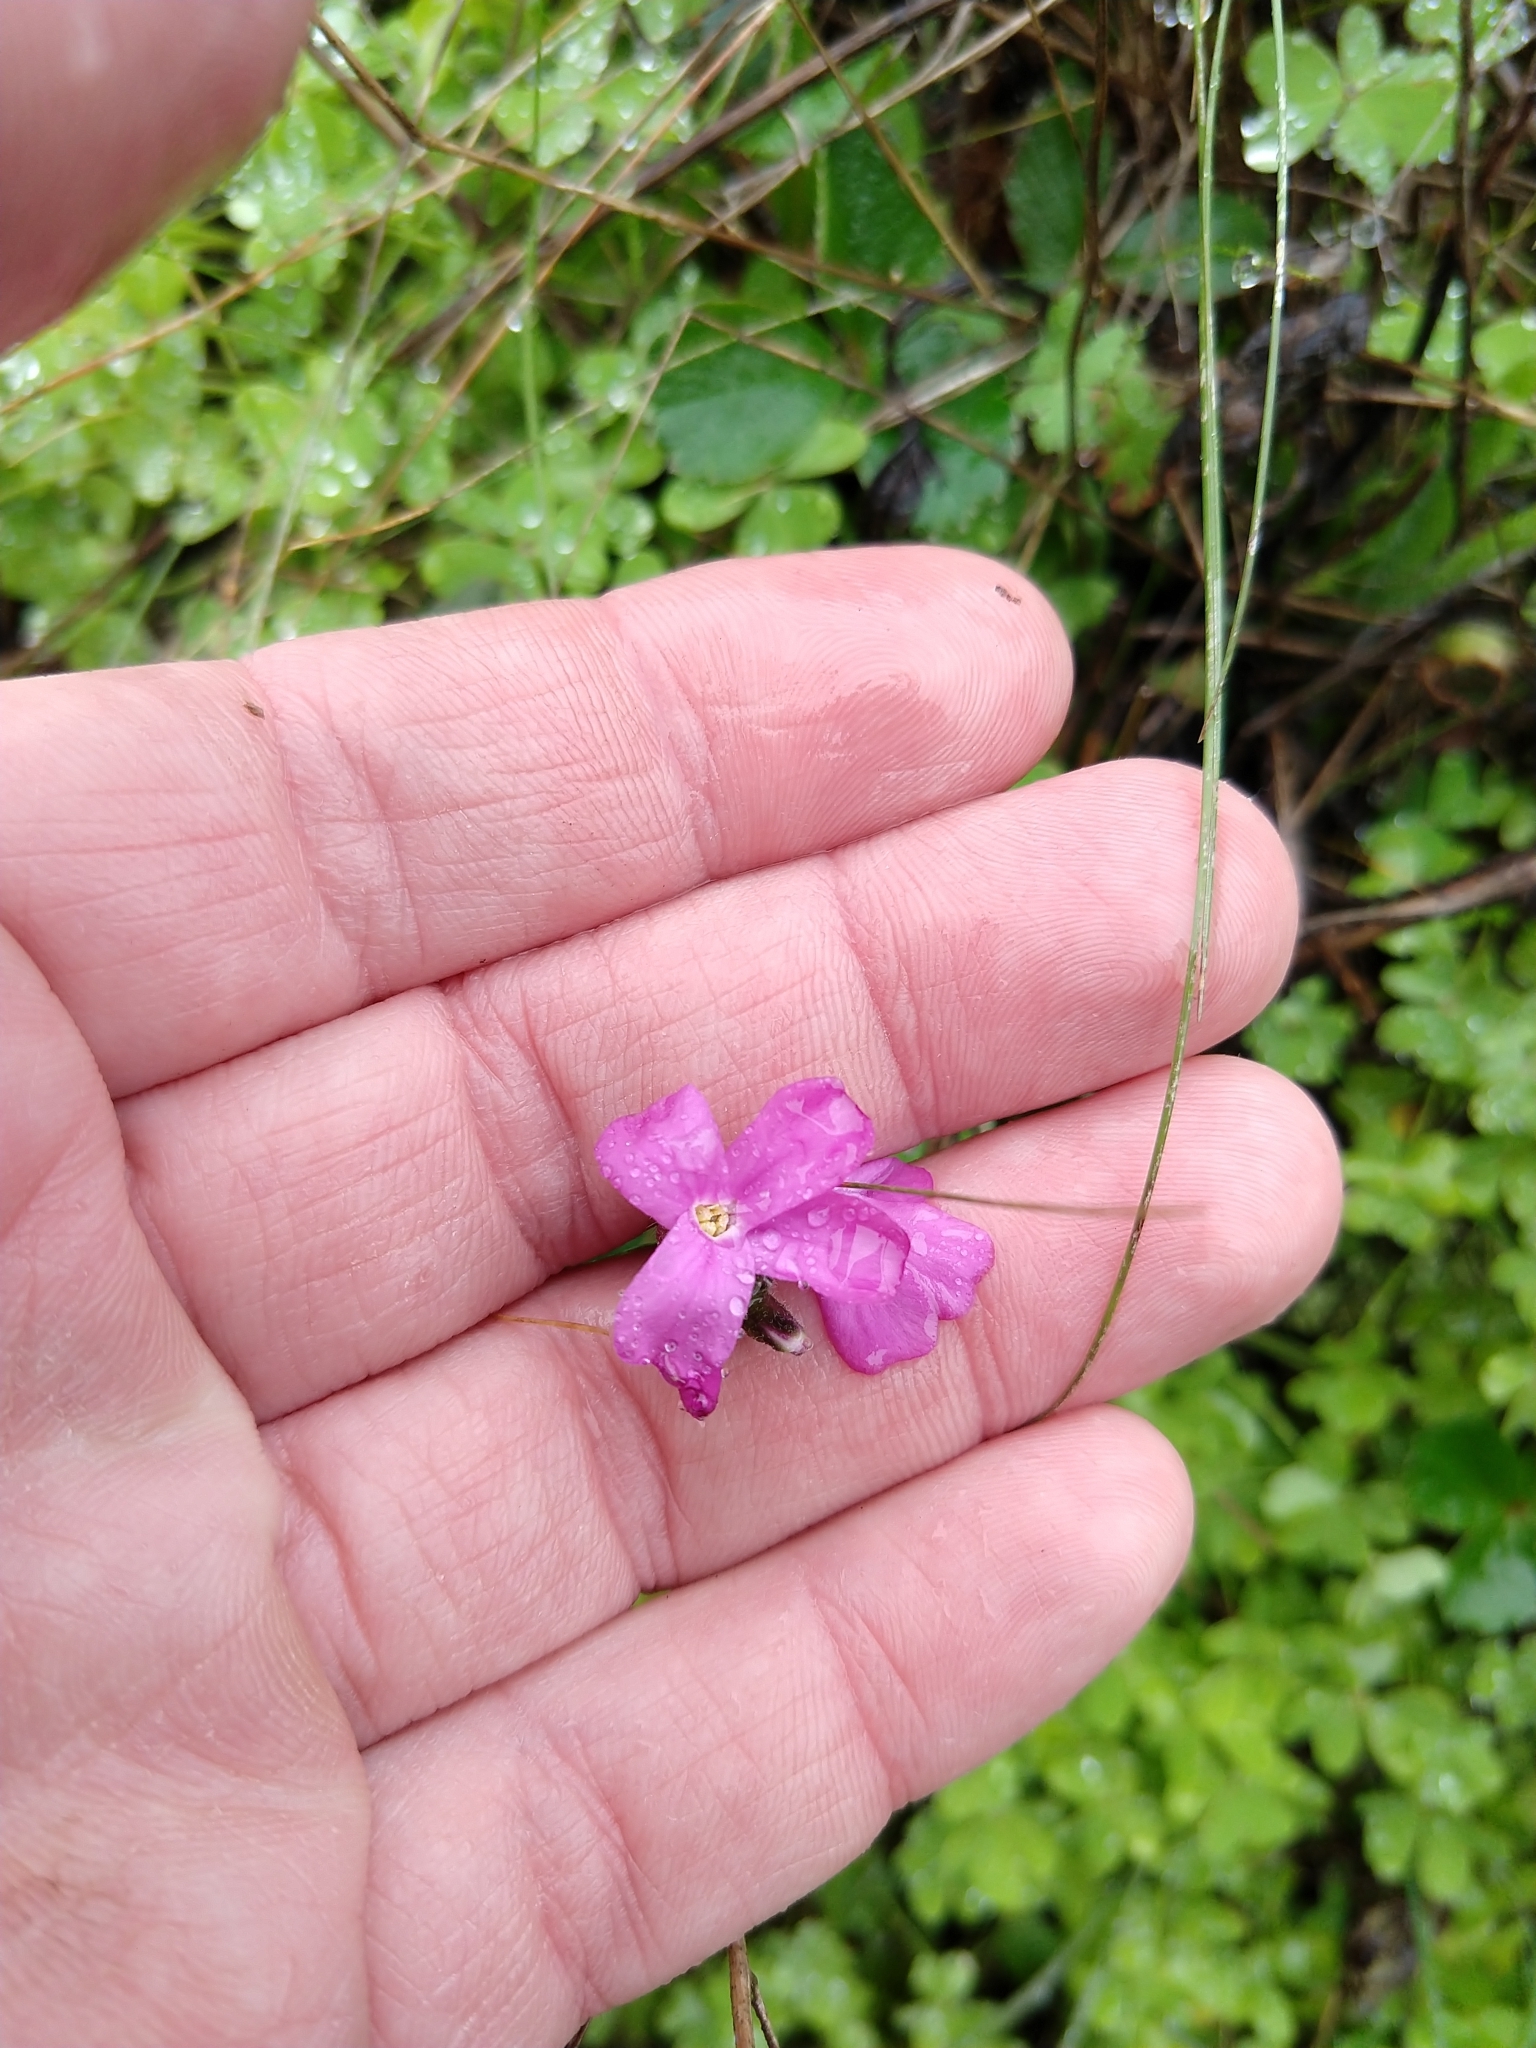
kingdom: Plantae
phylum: Tracheophyta
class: Magnoliopsida
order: Brassicales
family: Brassicaceae
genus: Arabis
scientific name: Arabis blepharophylla
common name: Rose rockcress
